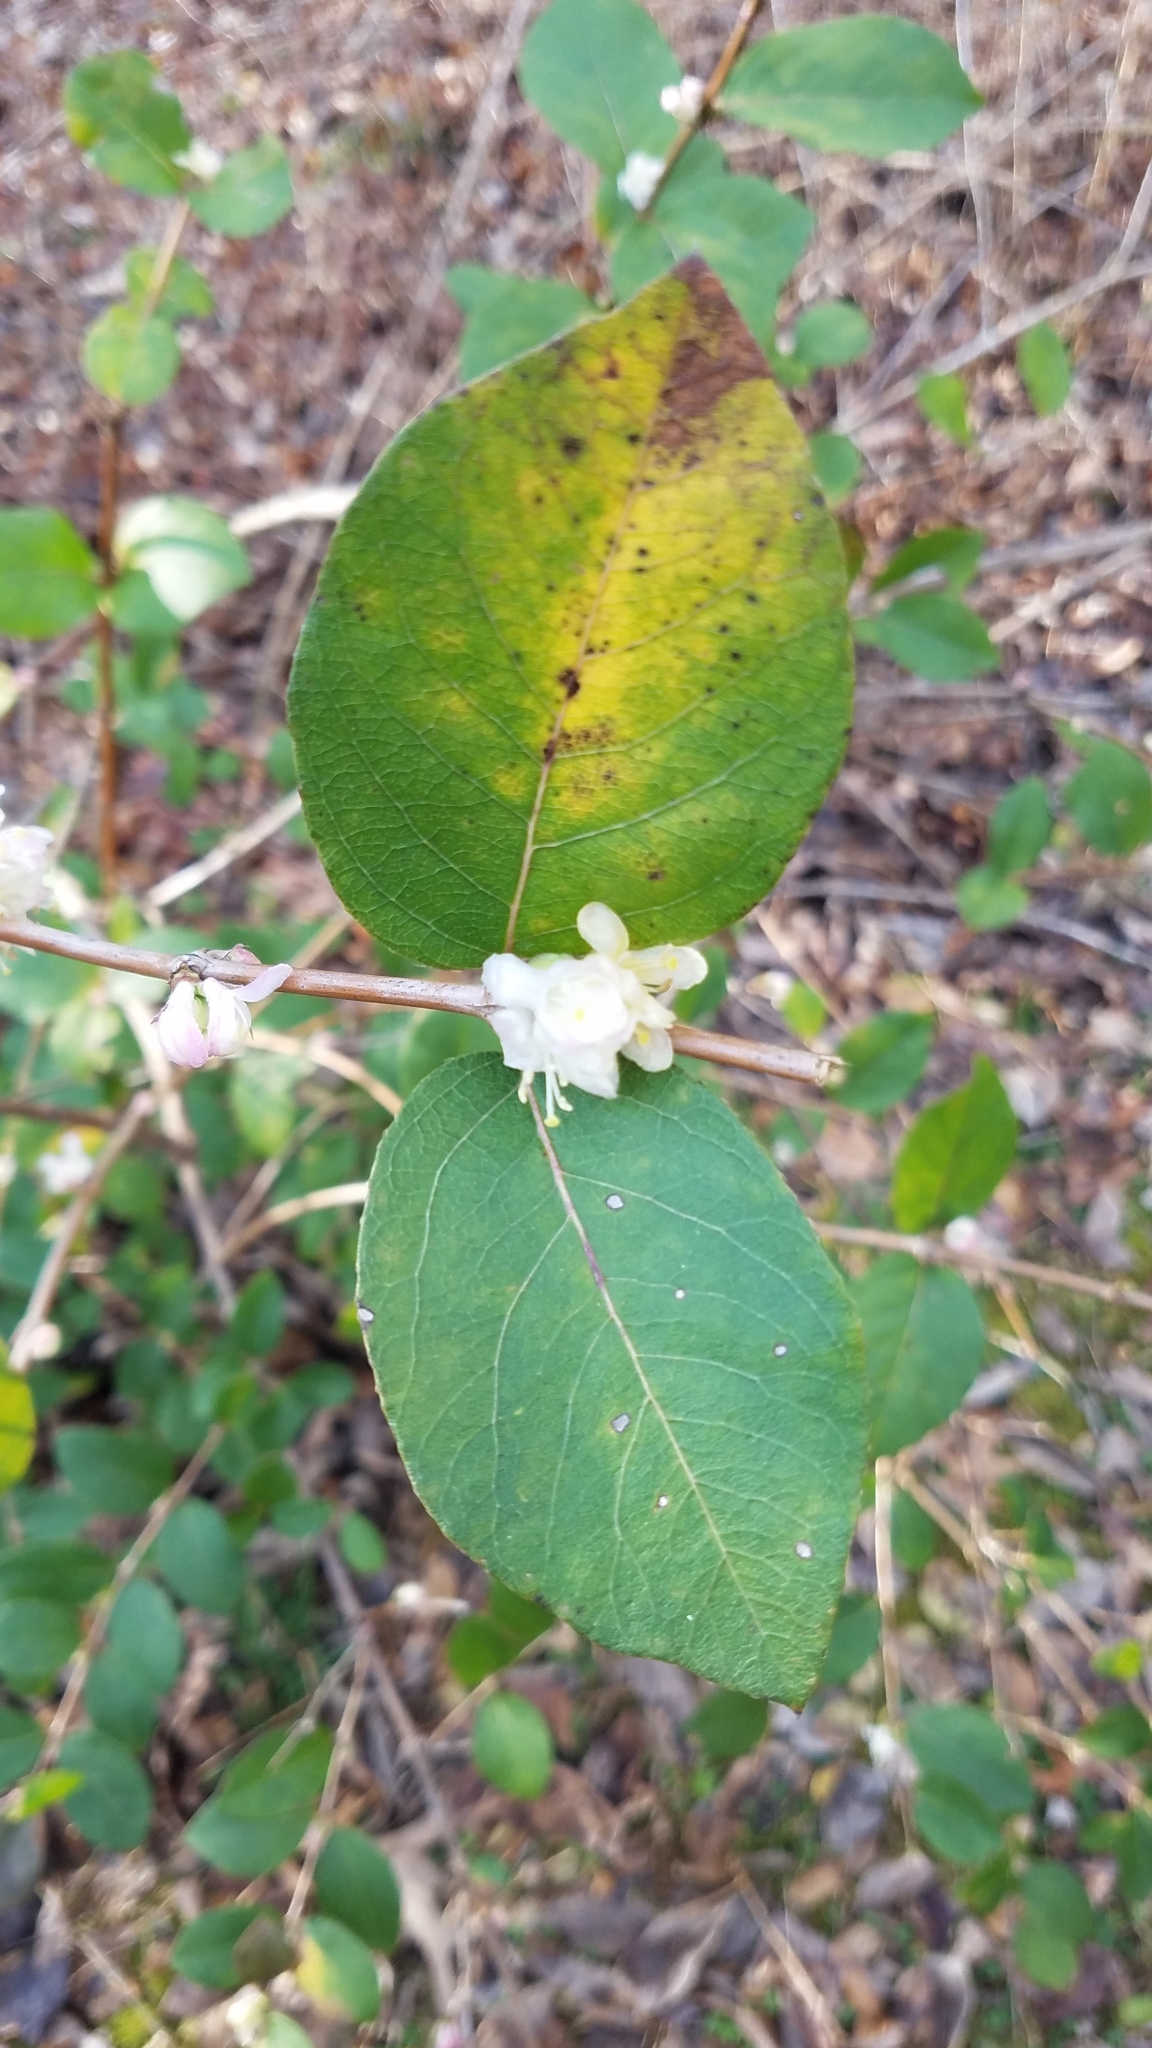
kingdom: Plantae
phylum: Tracheophyta
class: Magnoliopsida
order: Dipsacales
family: Caprifoliaceae
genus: Lonicera
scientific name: Lonicera fragrantissima
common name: Fragrant honeysuckle
